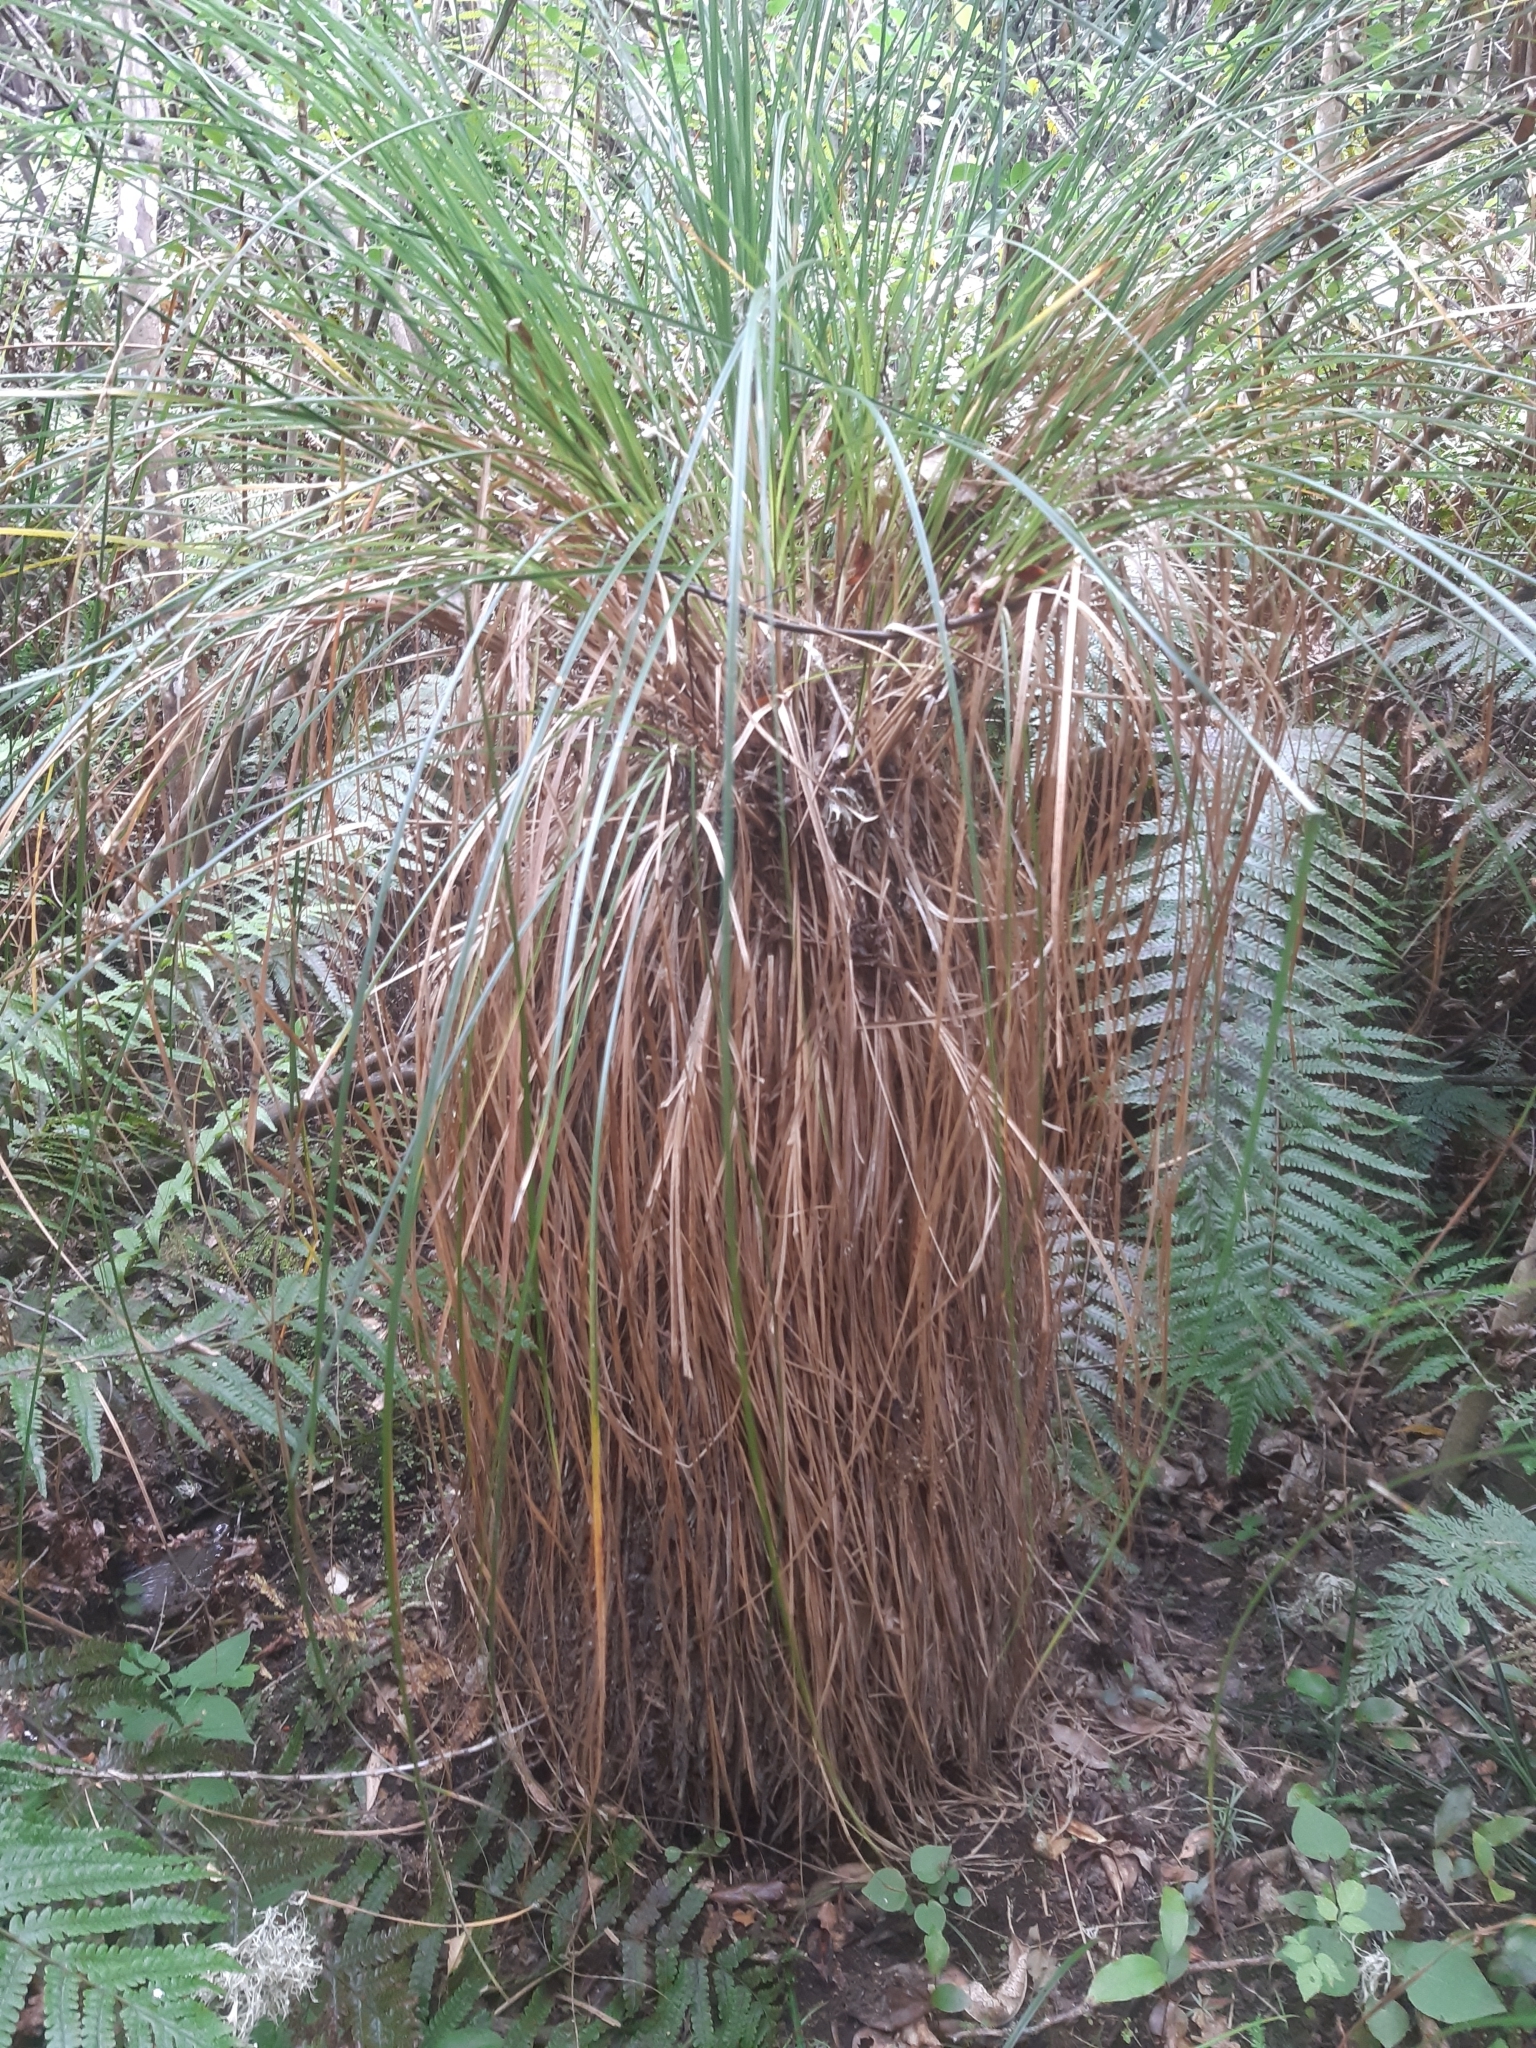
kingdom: Plantae
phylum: Tracheophyta
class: Liliopsida
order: Poales
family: Cyperaceae
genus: Carex
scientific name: Carex secta
